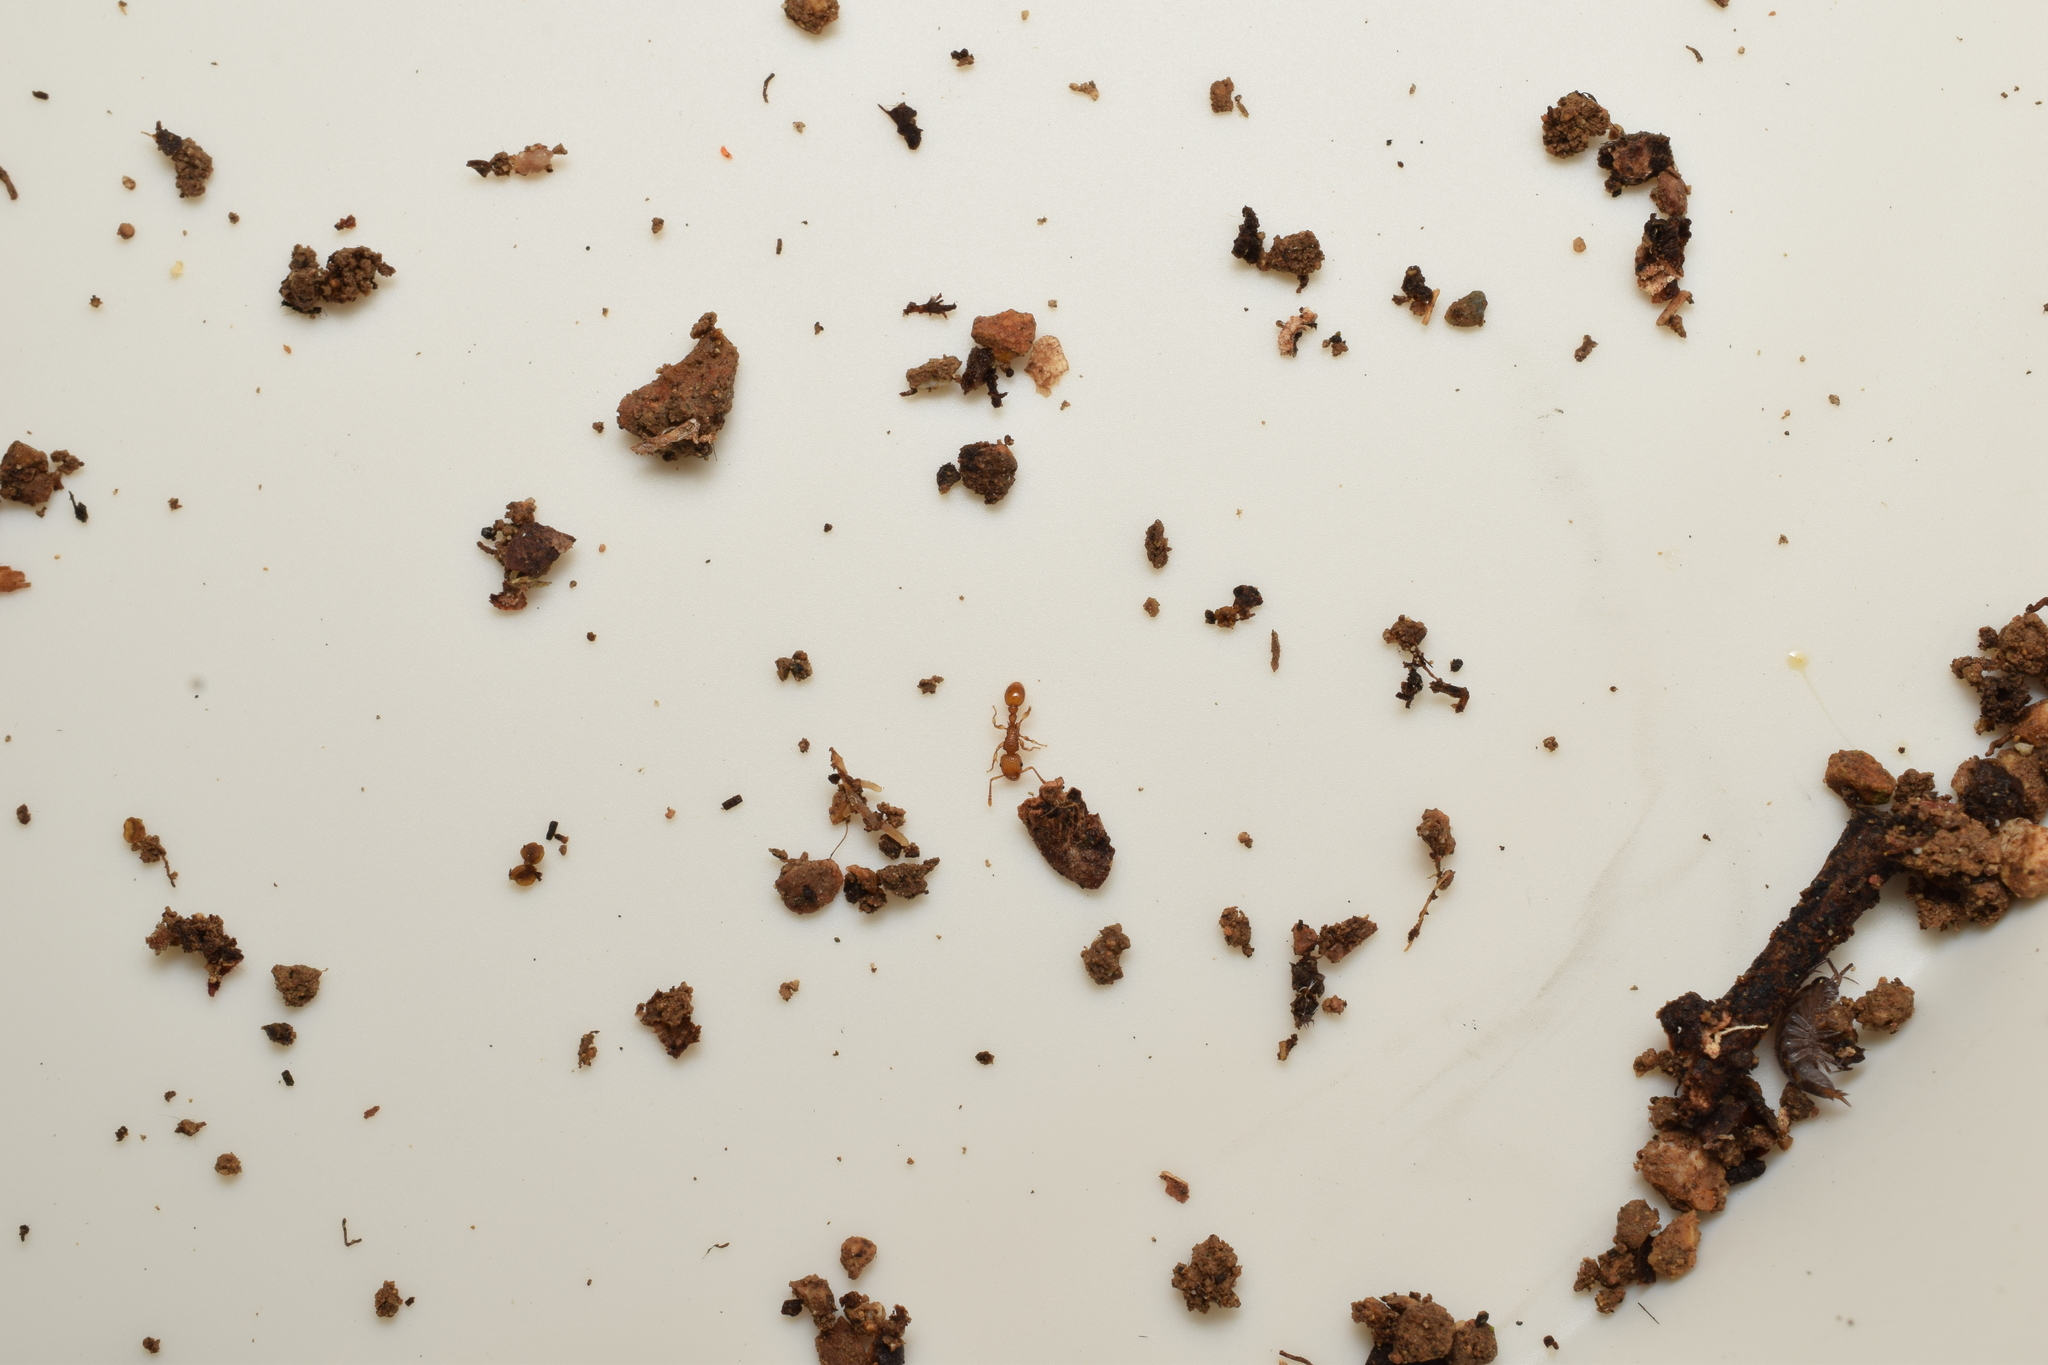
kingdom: Animalia
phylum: Arthropoda
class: Insecta
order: Hymenoptera
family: Formicidae
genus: Tetramorium
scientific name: Tetramorium nipponense
